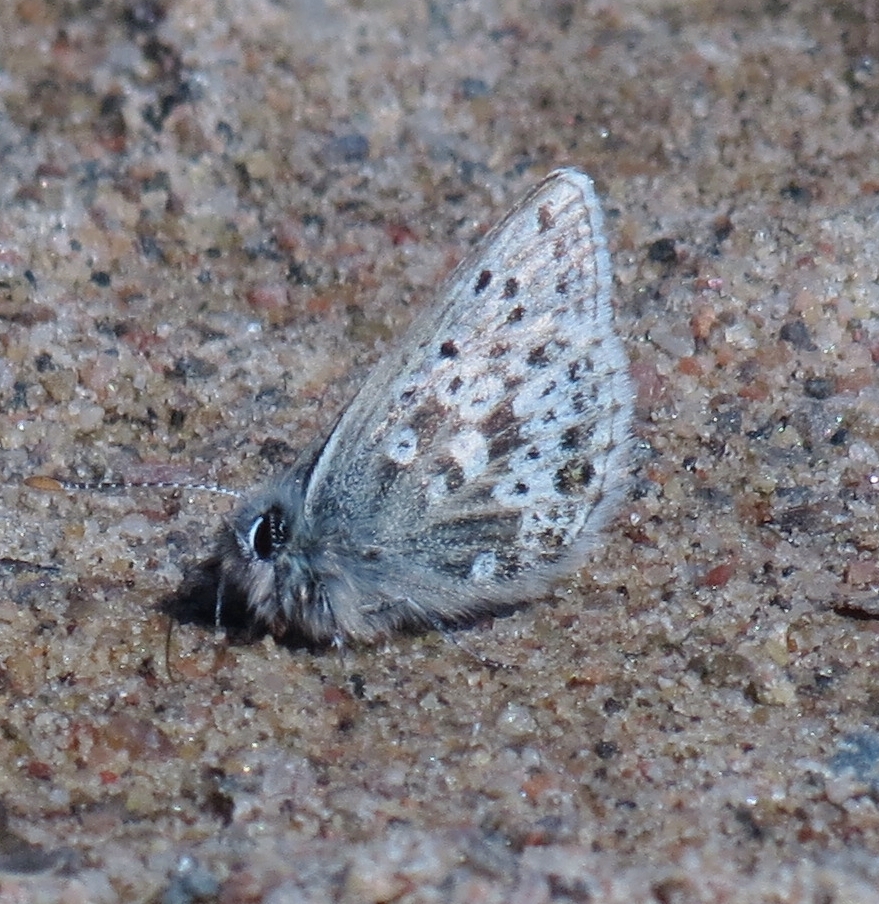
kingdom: Animalia
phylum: Arthropoda
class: Insecta
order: Lepidoptera
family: Lycaenidae
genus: Agriades
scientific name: Agriades glandon
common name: Glandon blue
